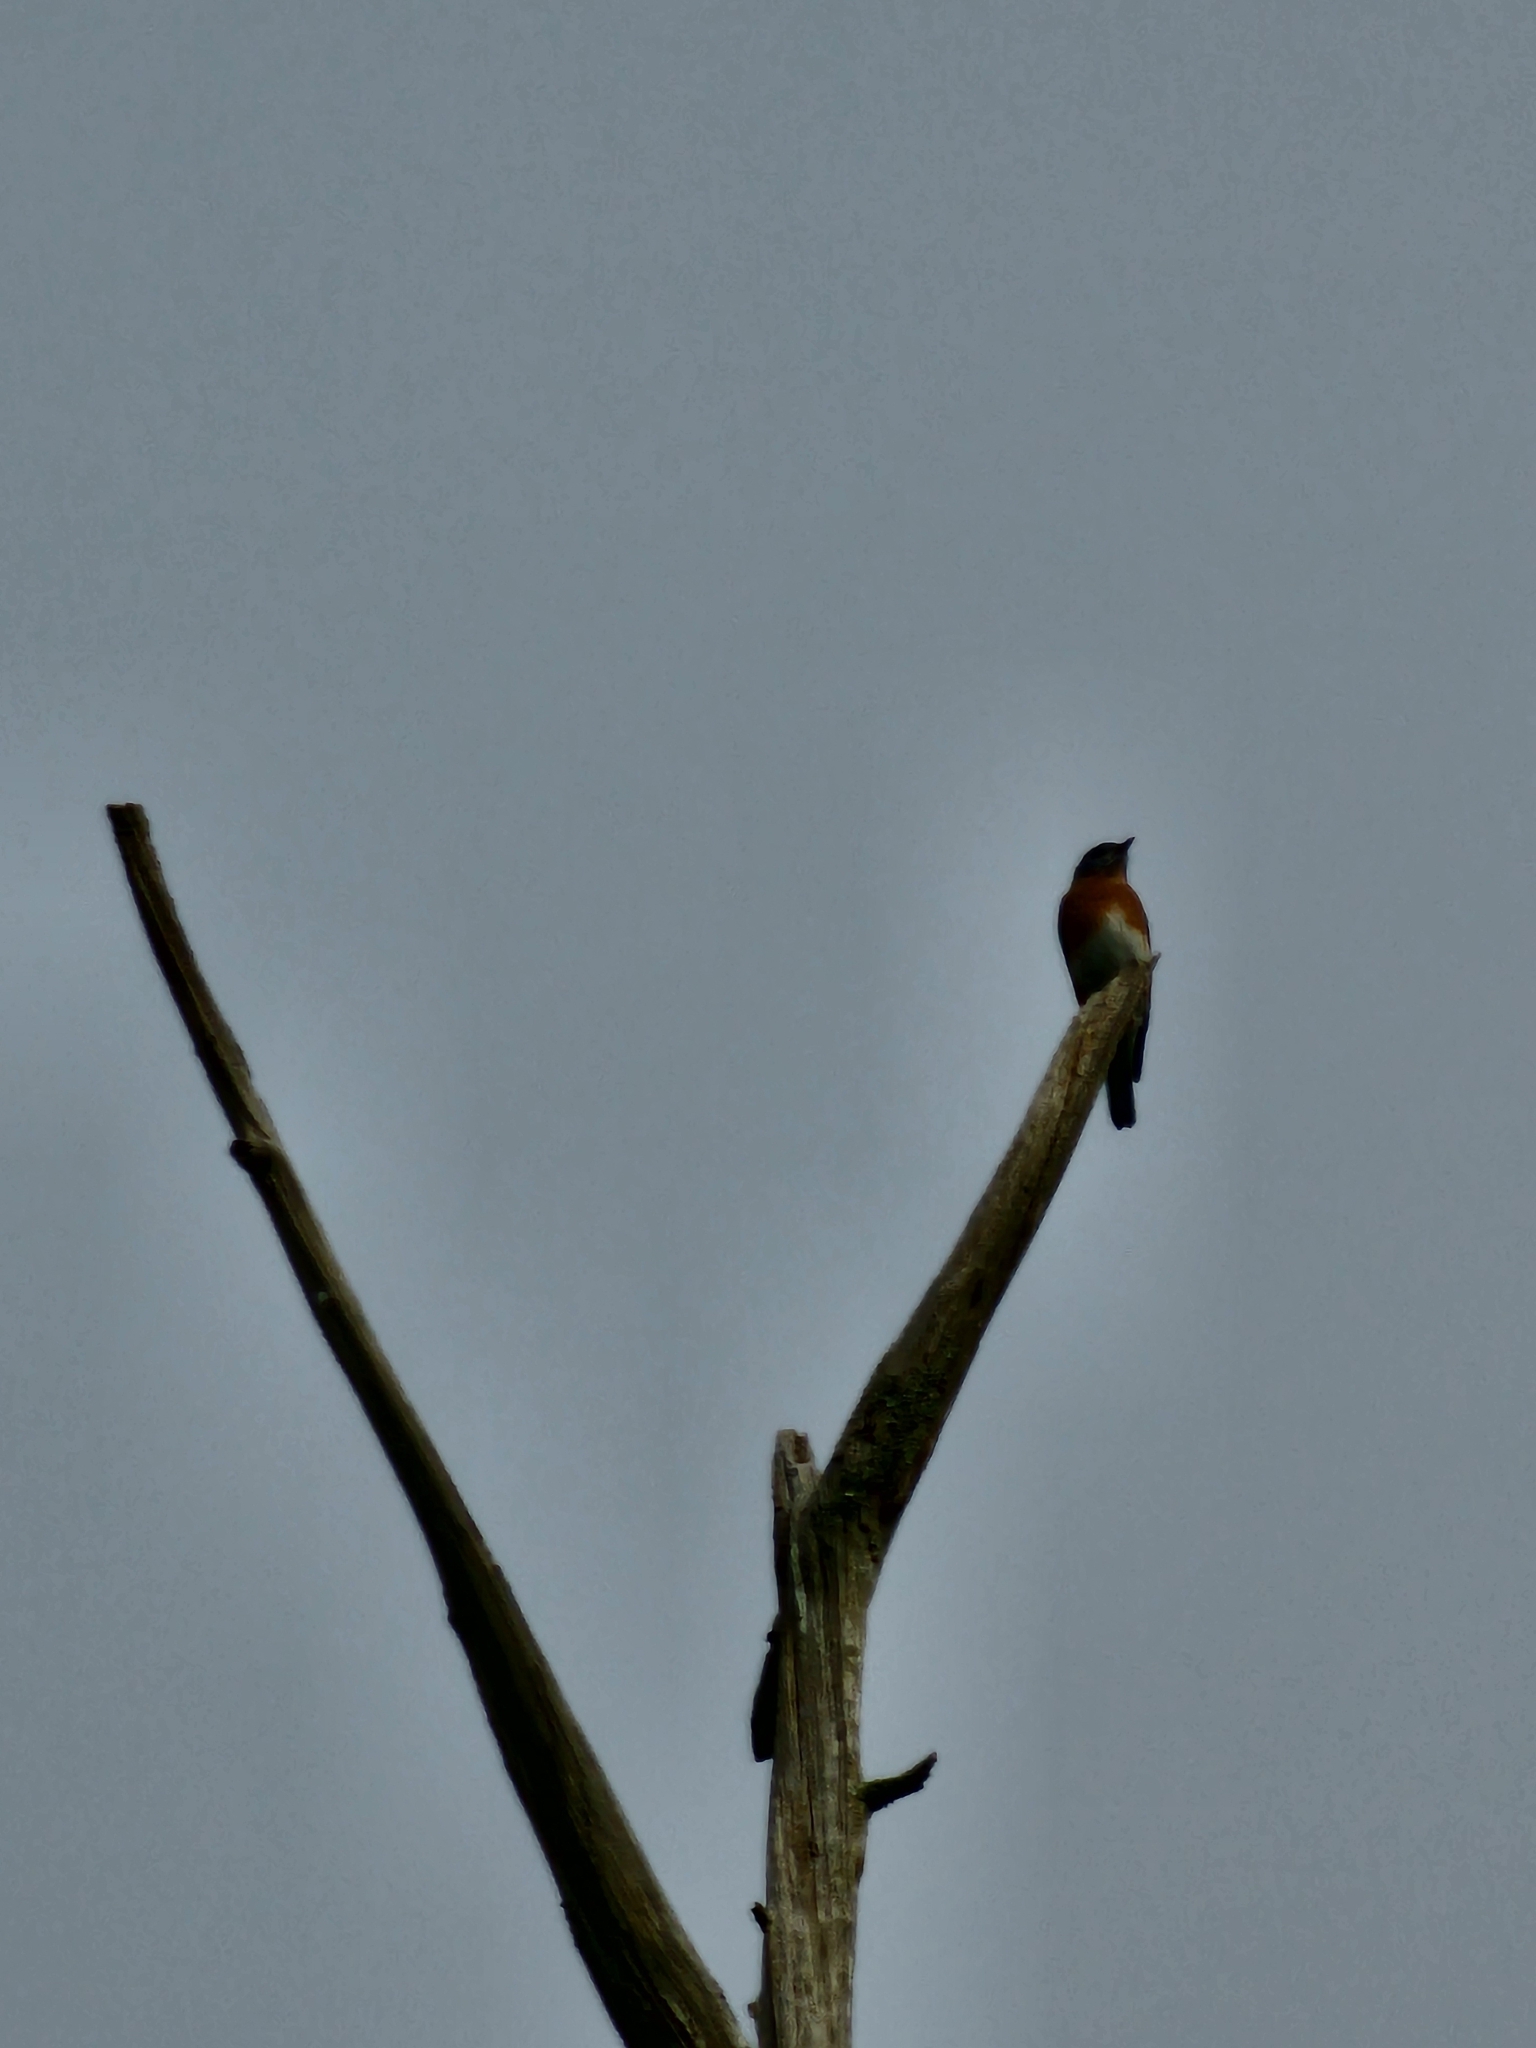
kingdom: Animalia
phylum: Chordata
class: Aves
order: Passeriformes
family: Turdidae
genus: Sialia
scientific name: Sialia sialis
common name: Eastern bluebird
